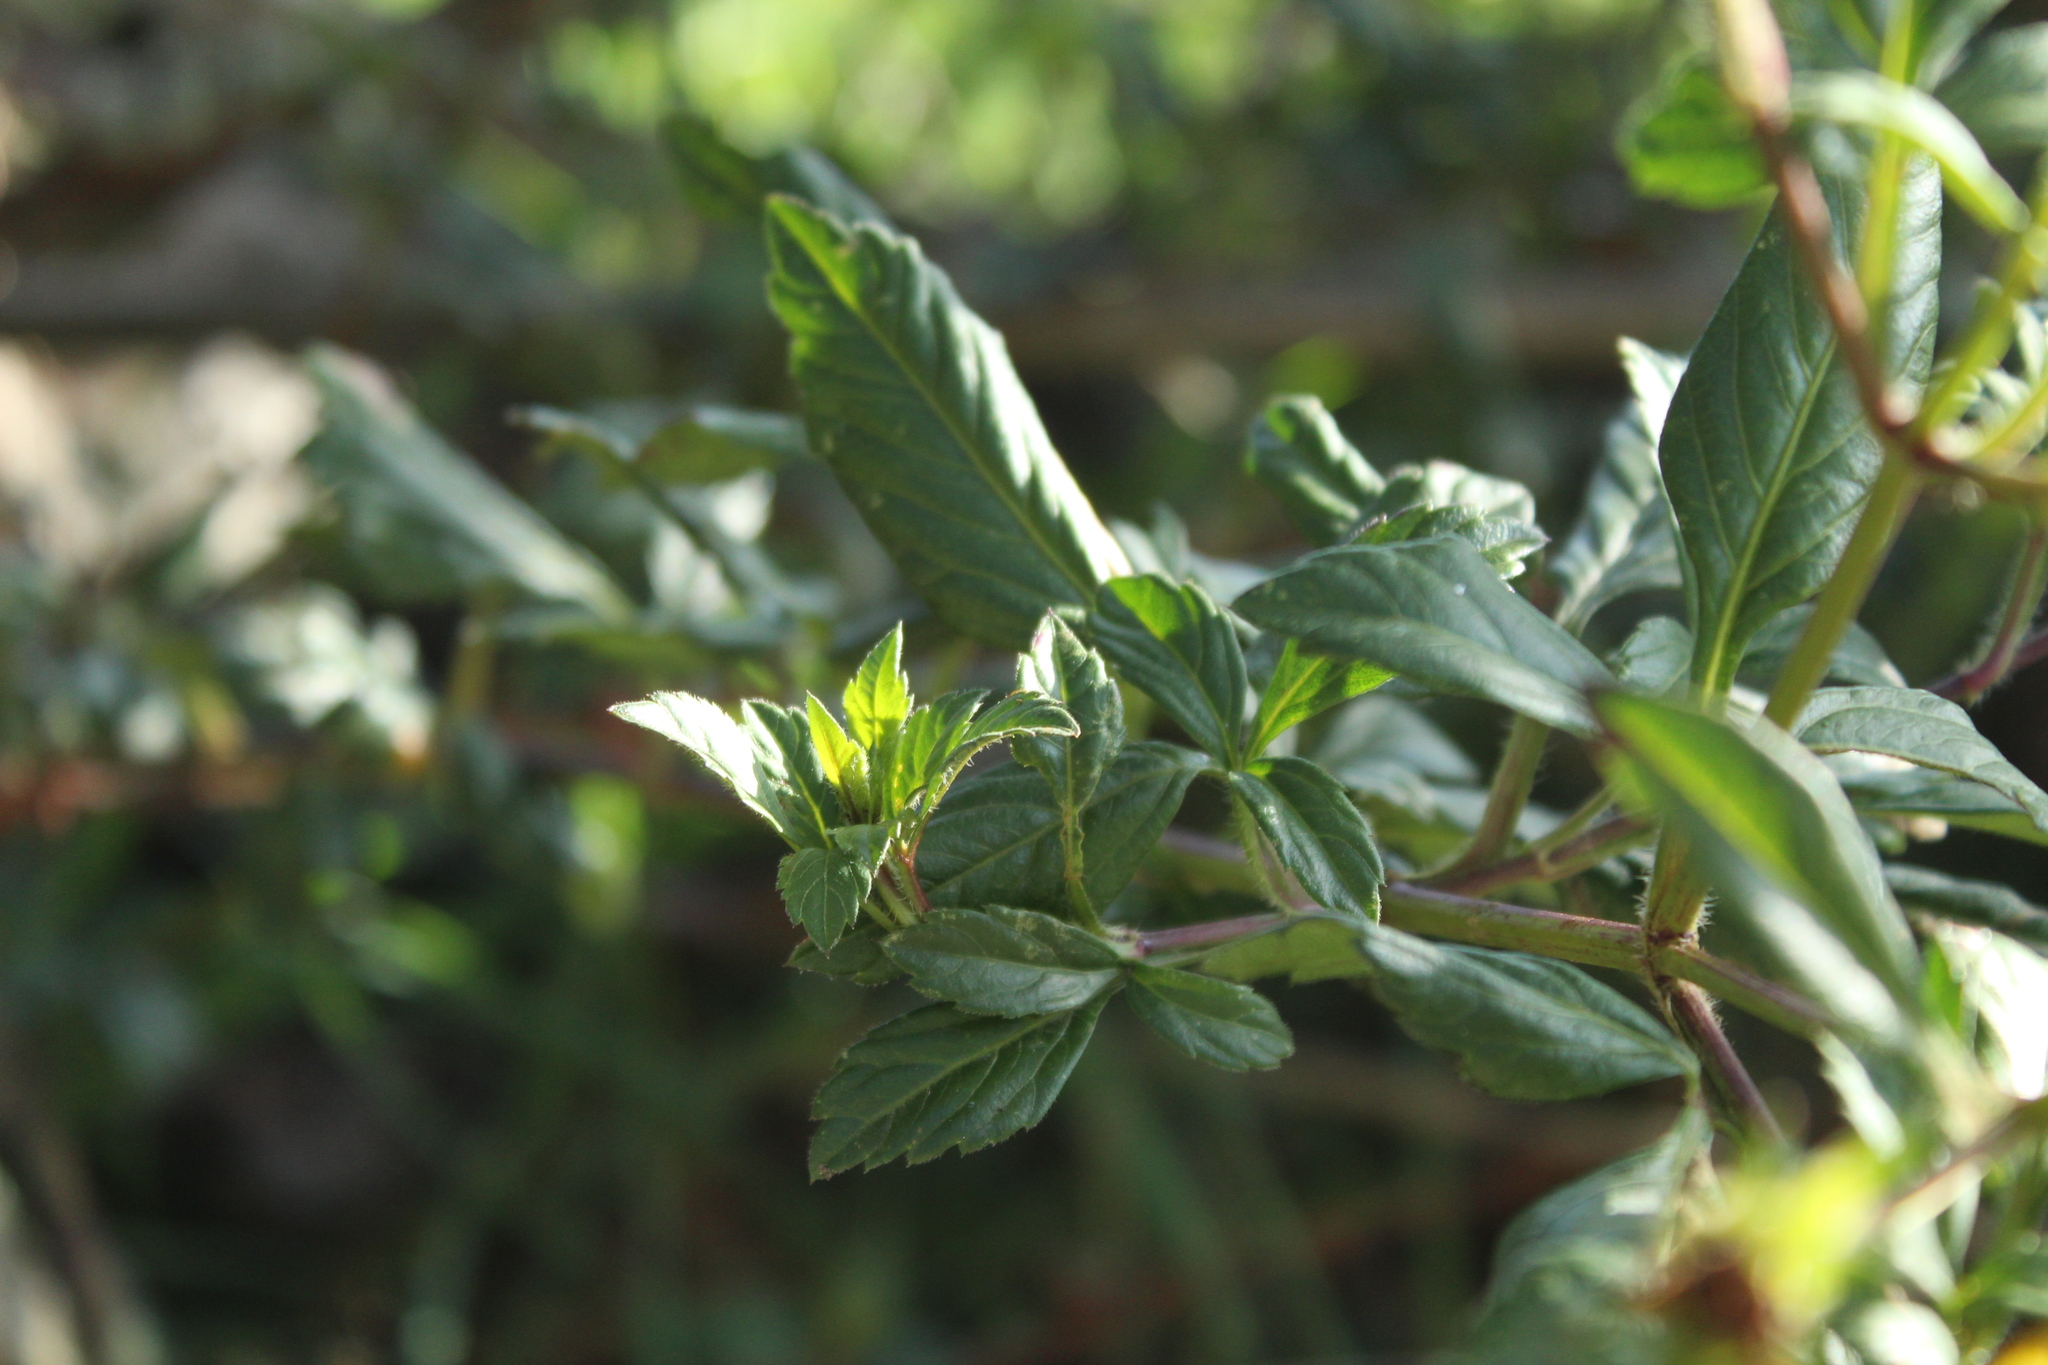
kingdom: Plantae
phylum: Tracheophyta
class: Magnoliopsida
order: Asterales
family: Asteraceae
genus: Bidens
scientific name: Bidens rubifolia
